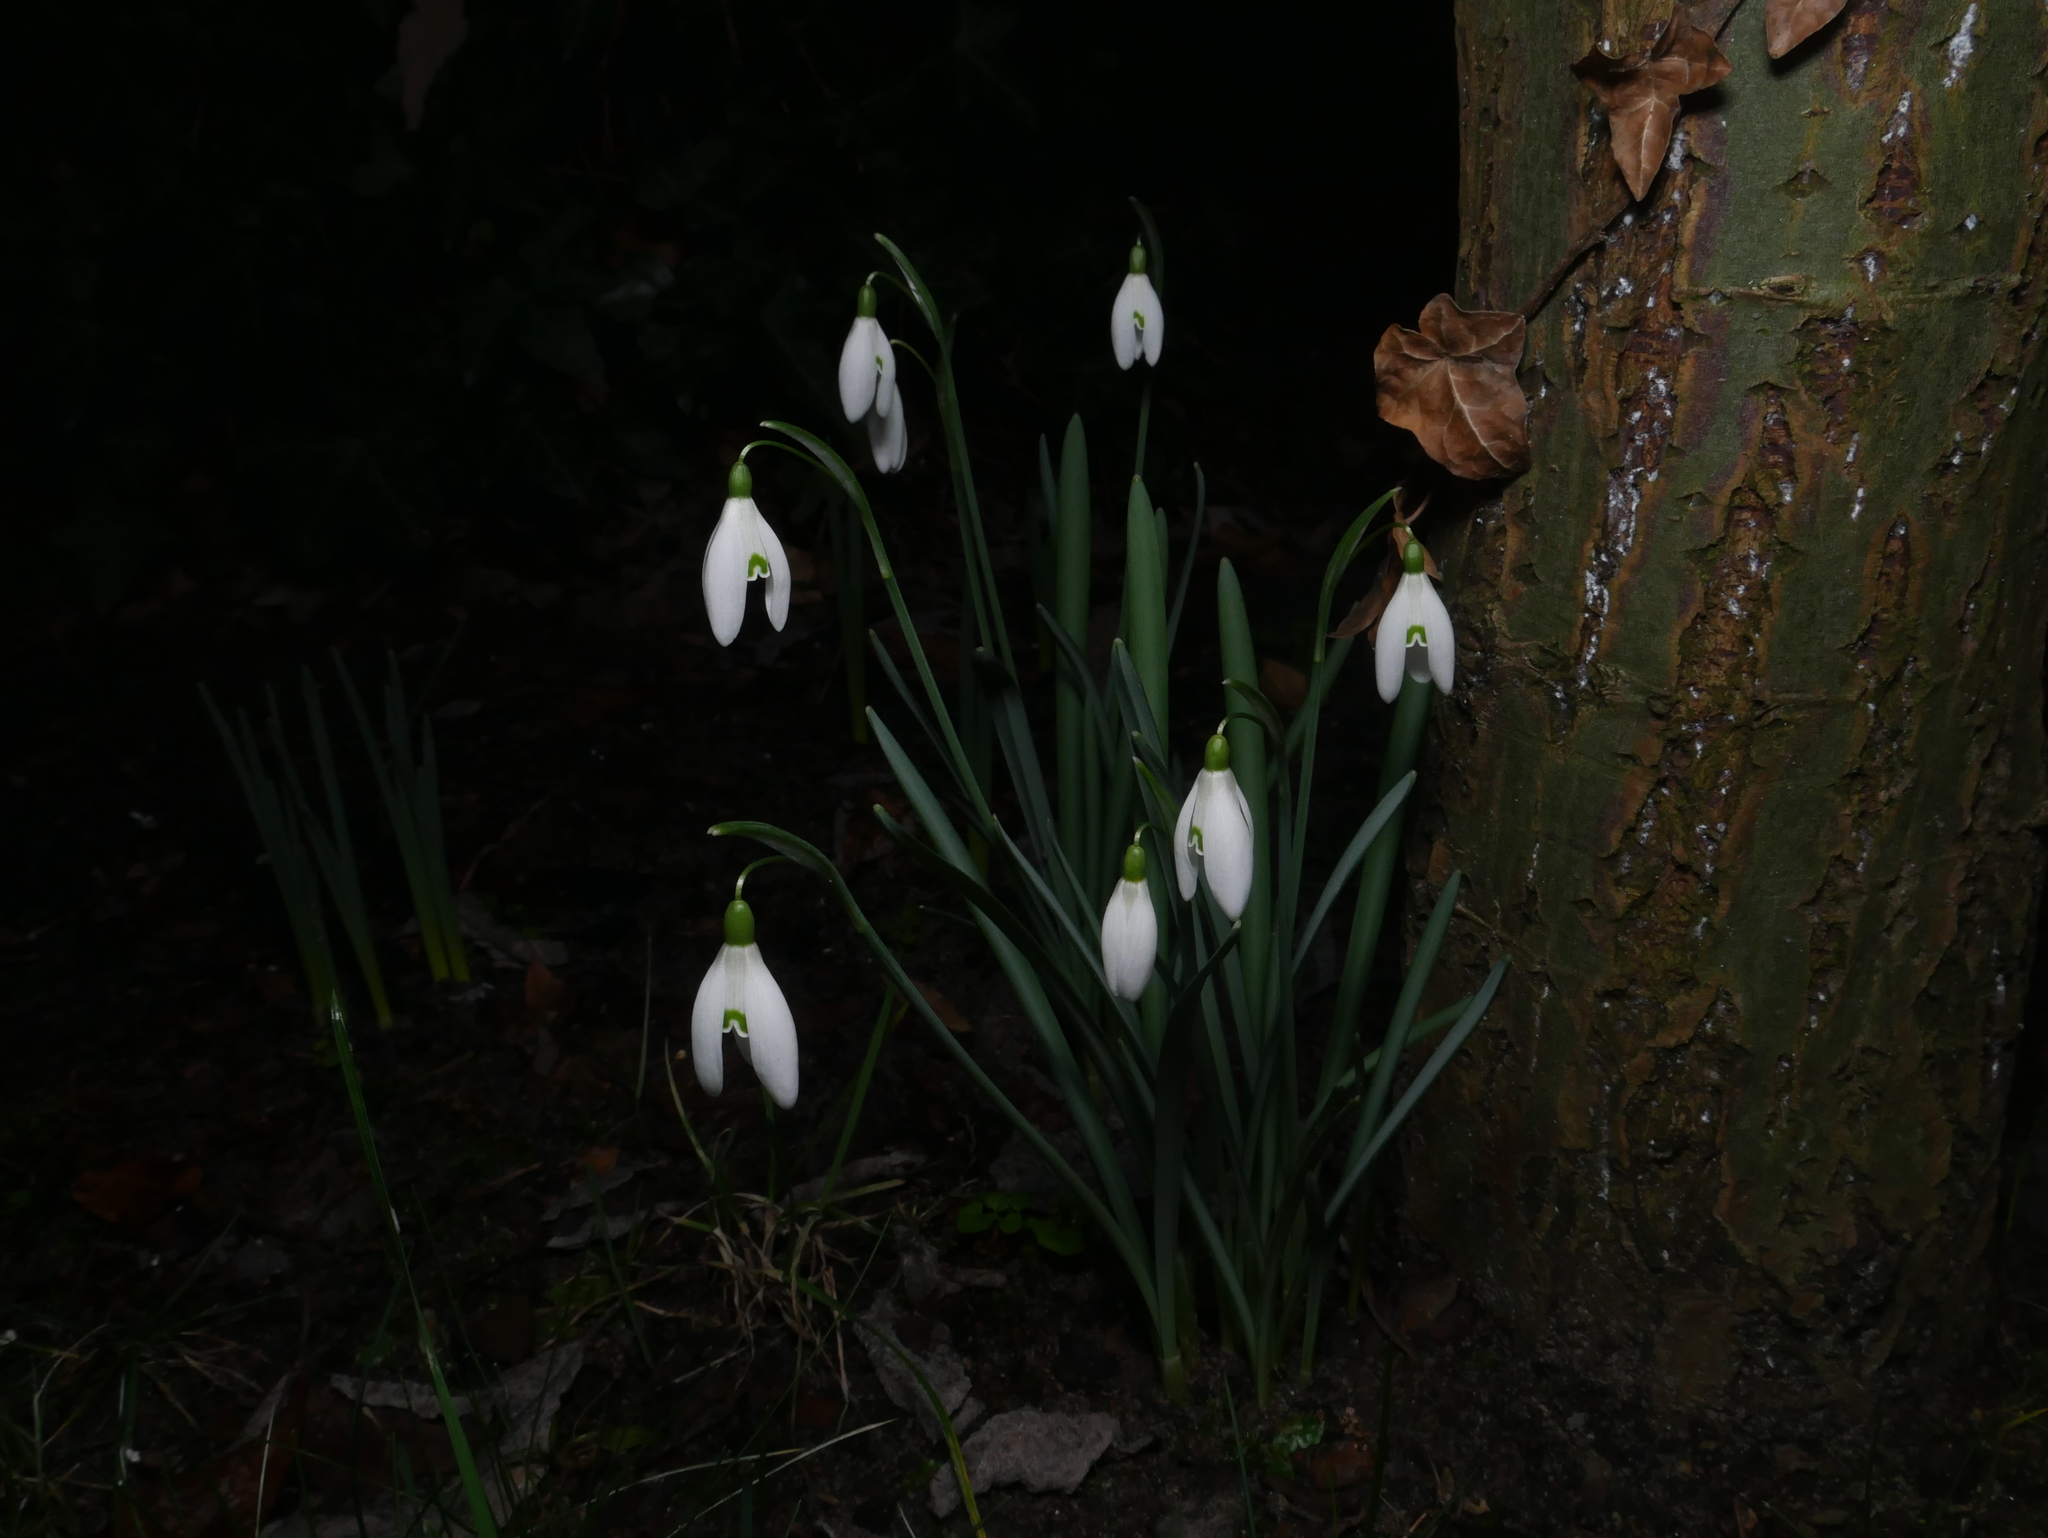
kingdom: Plantae
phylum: Tracheophyta
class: Liliopsida
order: Asparagales
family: Amaryllidaceae
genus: Galanthus
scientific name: Galanthus nivalis
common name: Snowdrop
